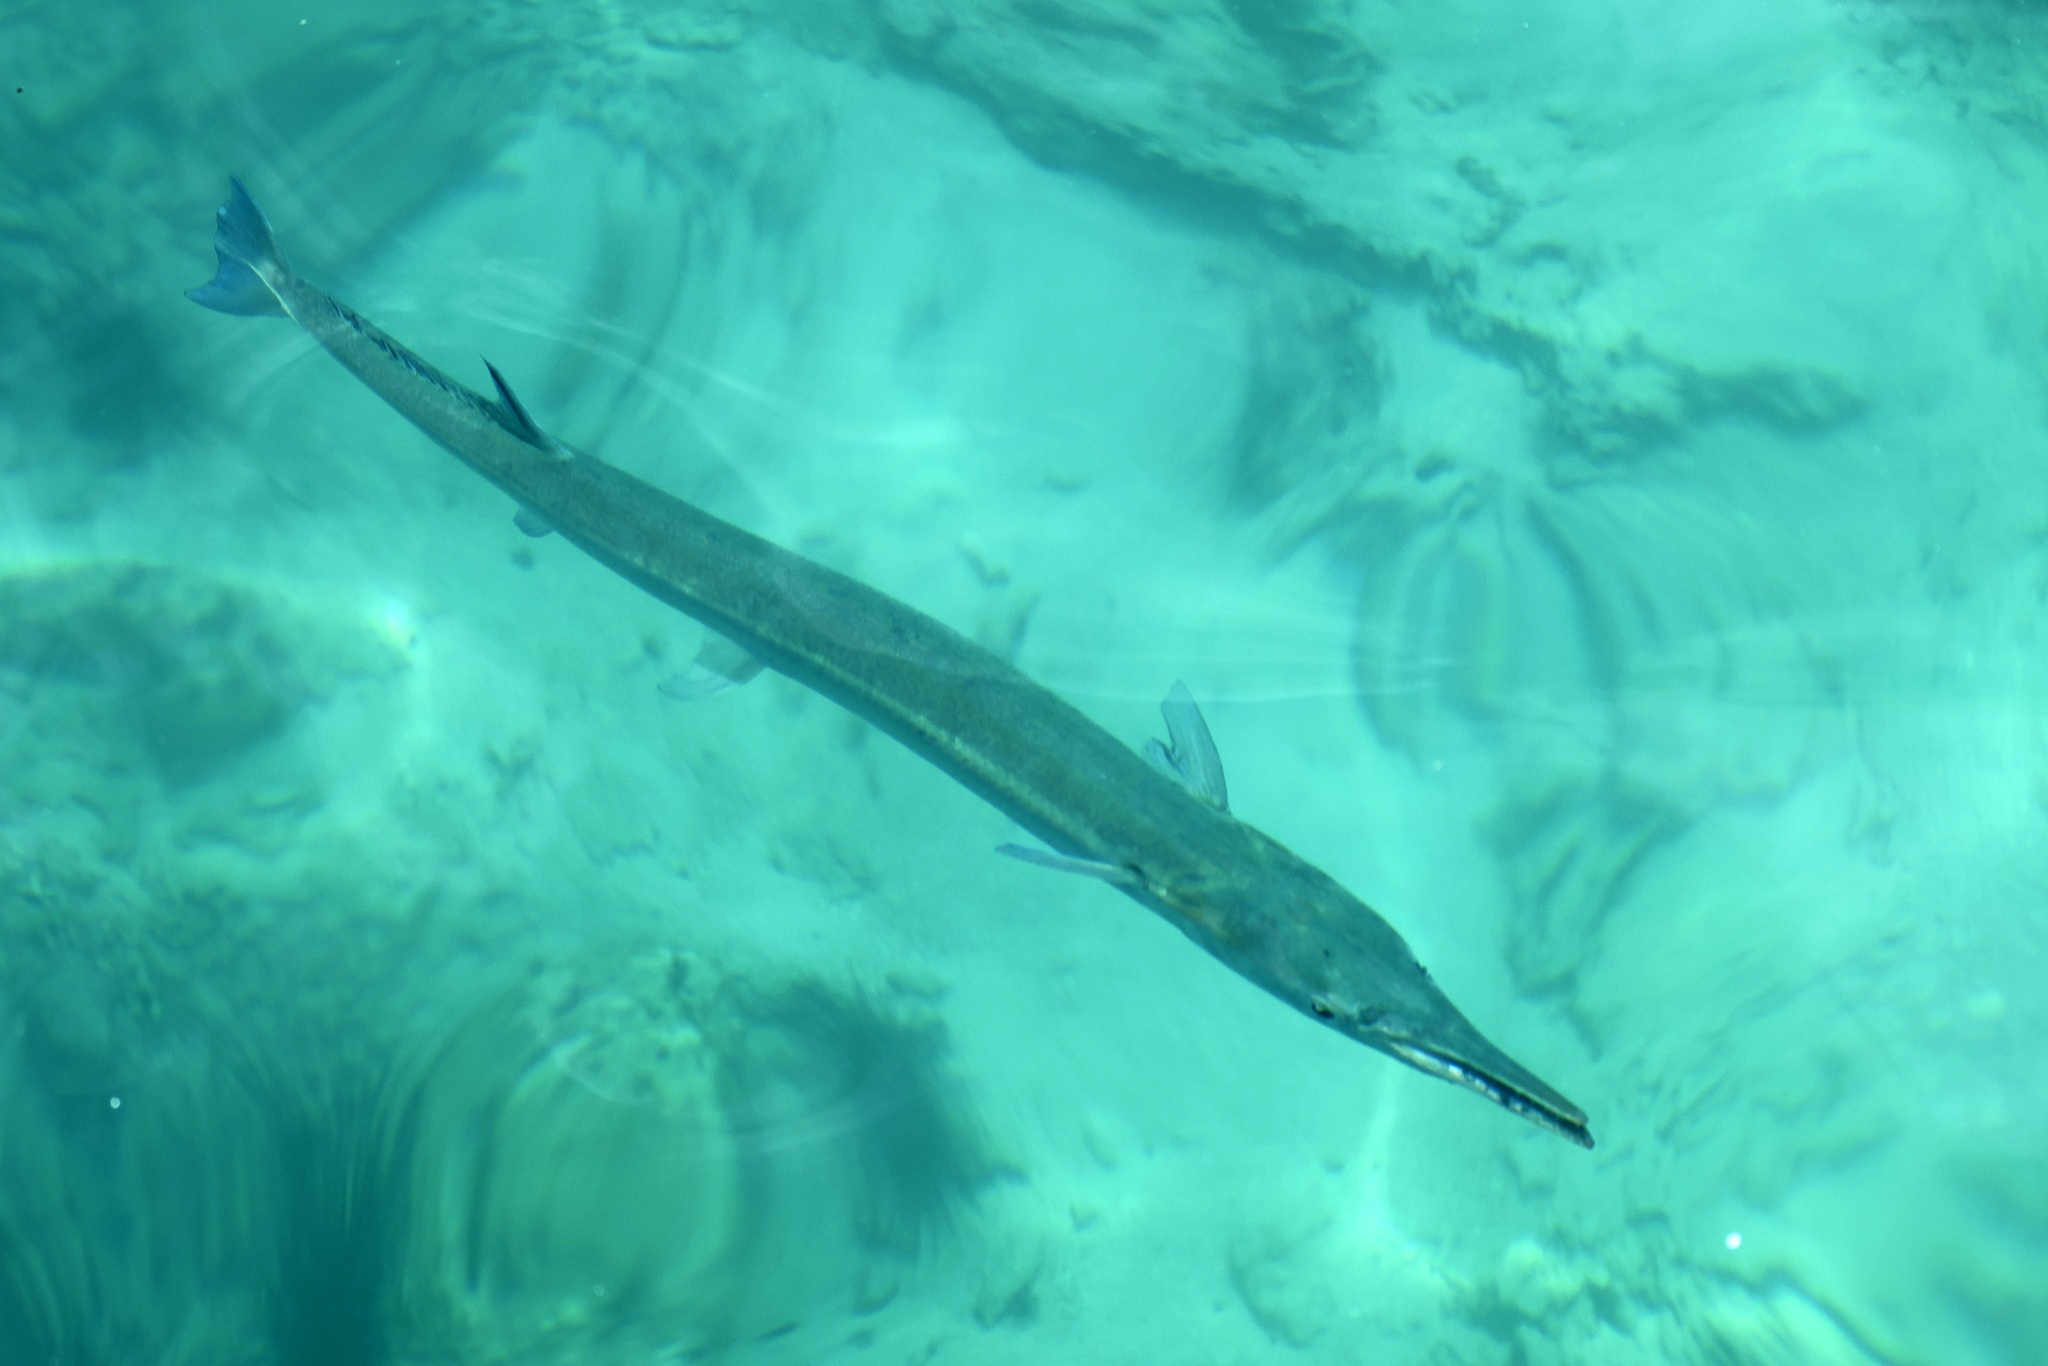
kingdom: Animalia
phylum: Chordata
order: Beloniformes
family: Belonidae
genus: Tylosurus
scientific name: Tylosurus crocodilus
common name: Houndfish
